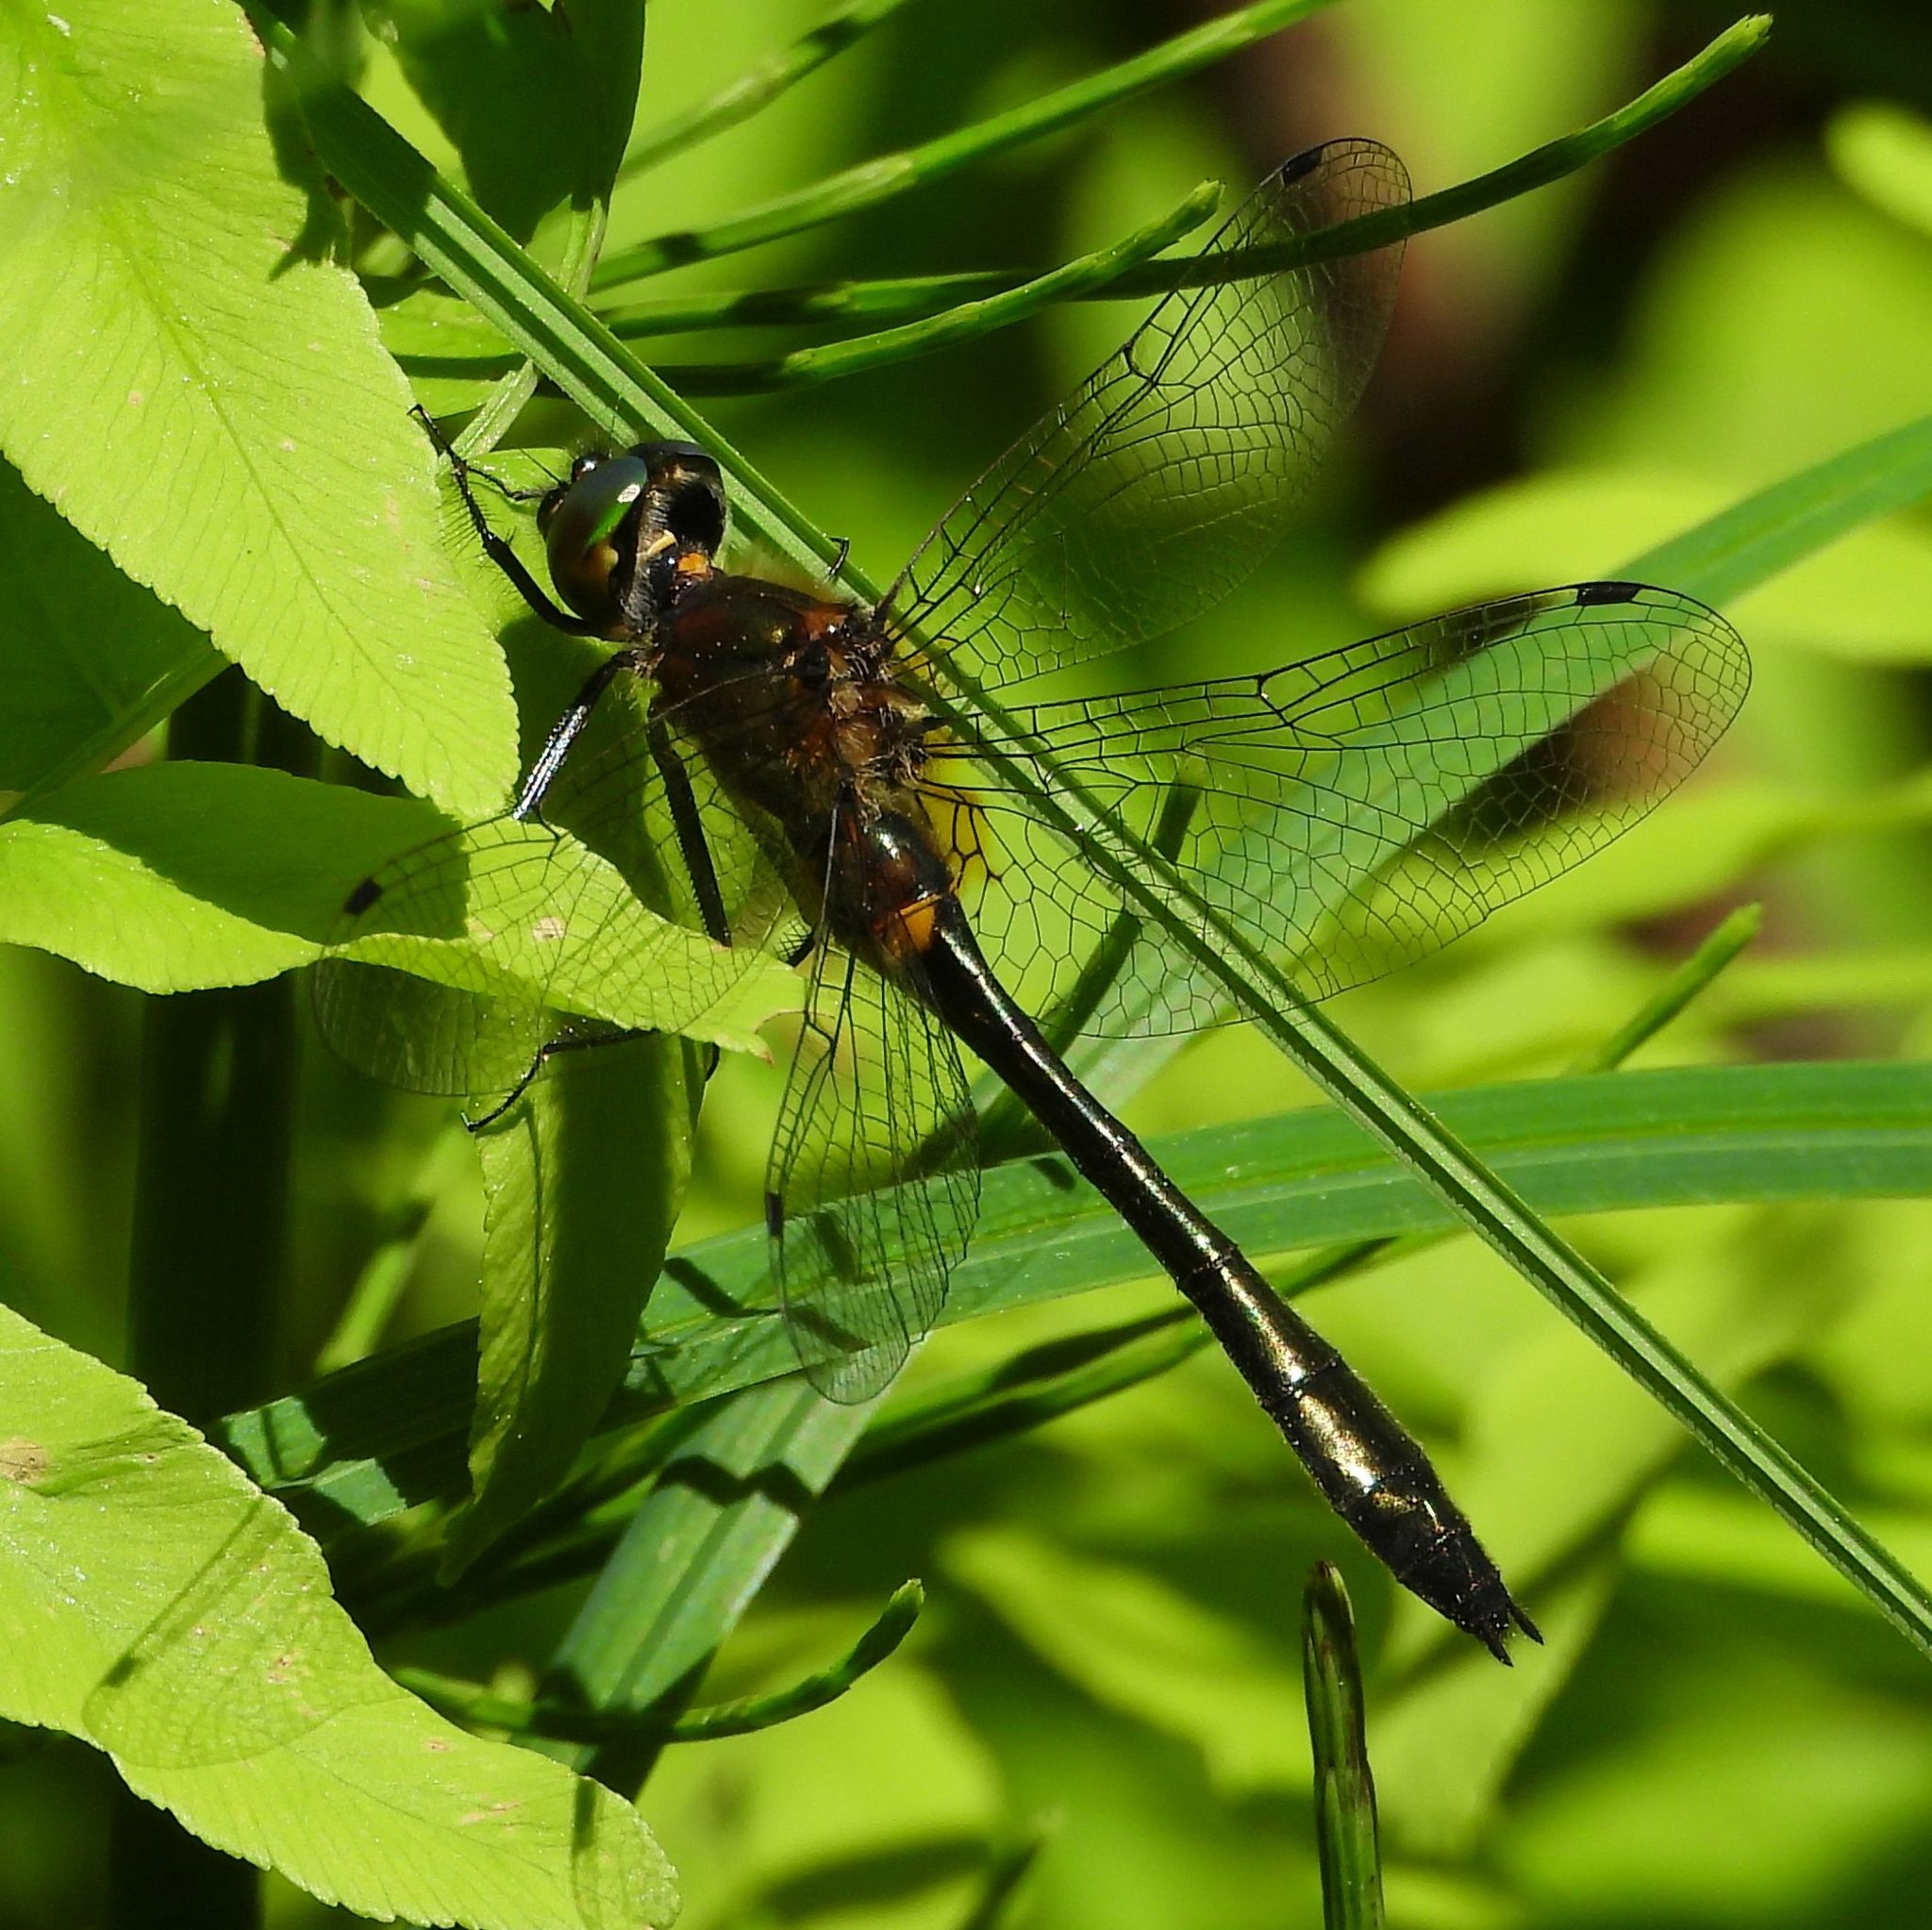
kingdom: Animalia
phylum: Arthropoda
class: Insecta
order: Odonata
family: Corduliidae
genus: Dorocordulia
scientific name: Dorocordulia libera
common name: Racket-tailed emerald
